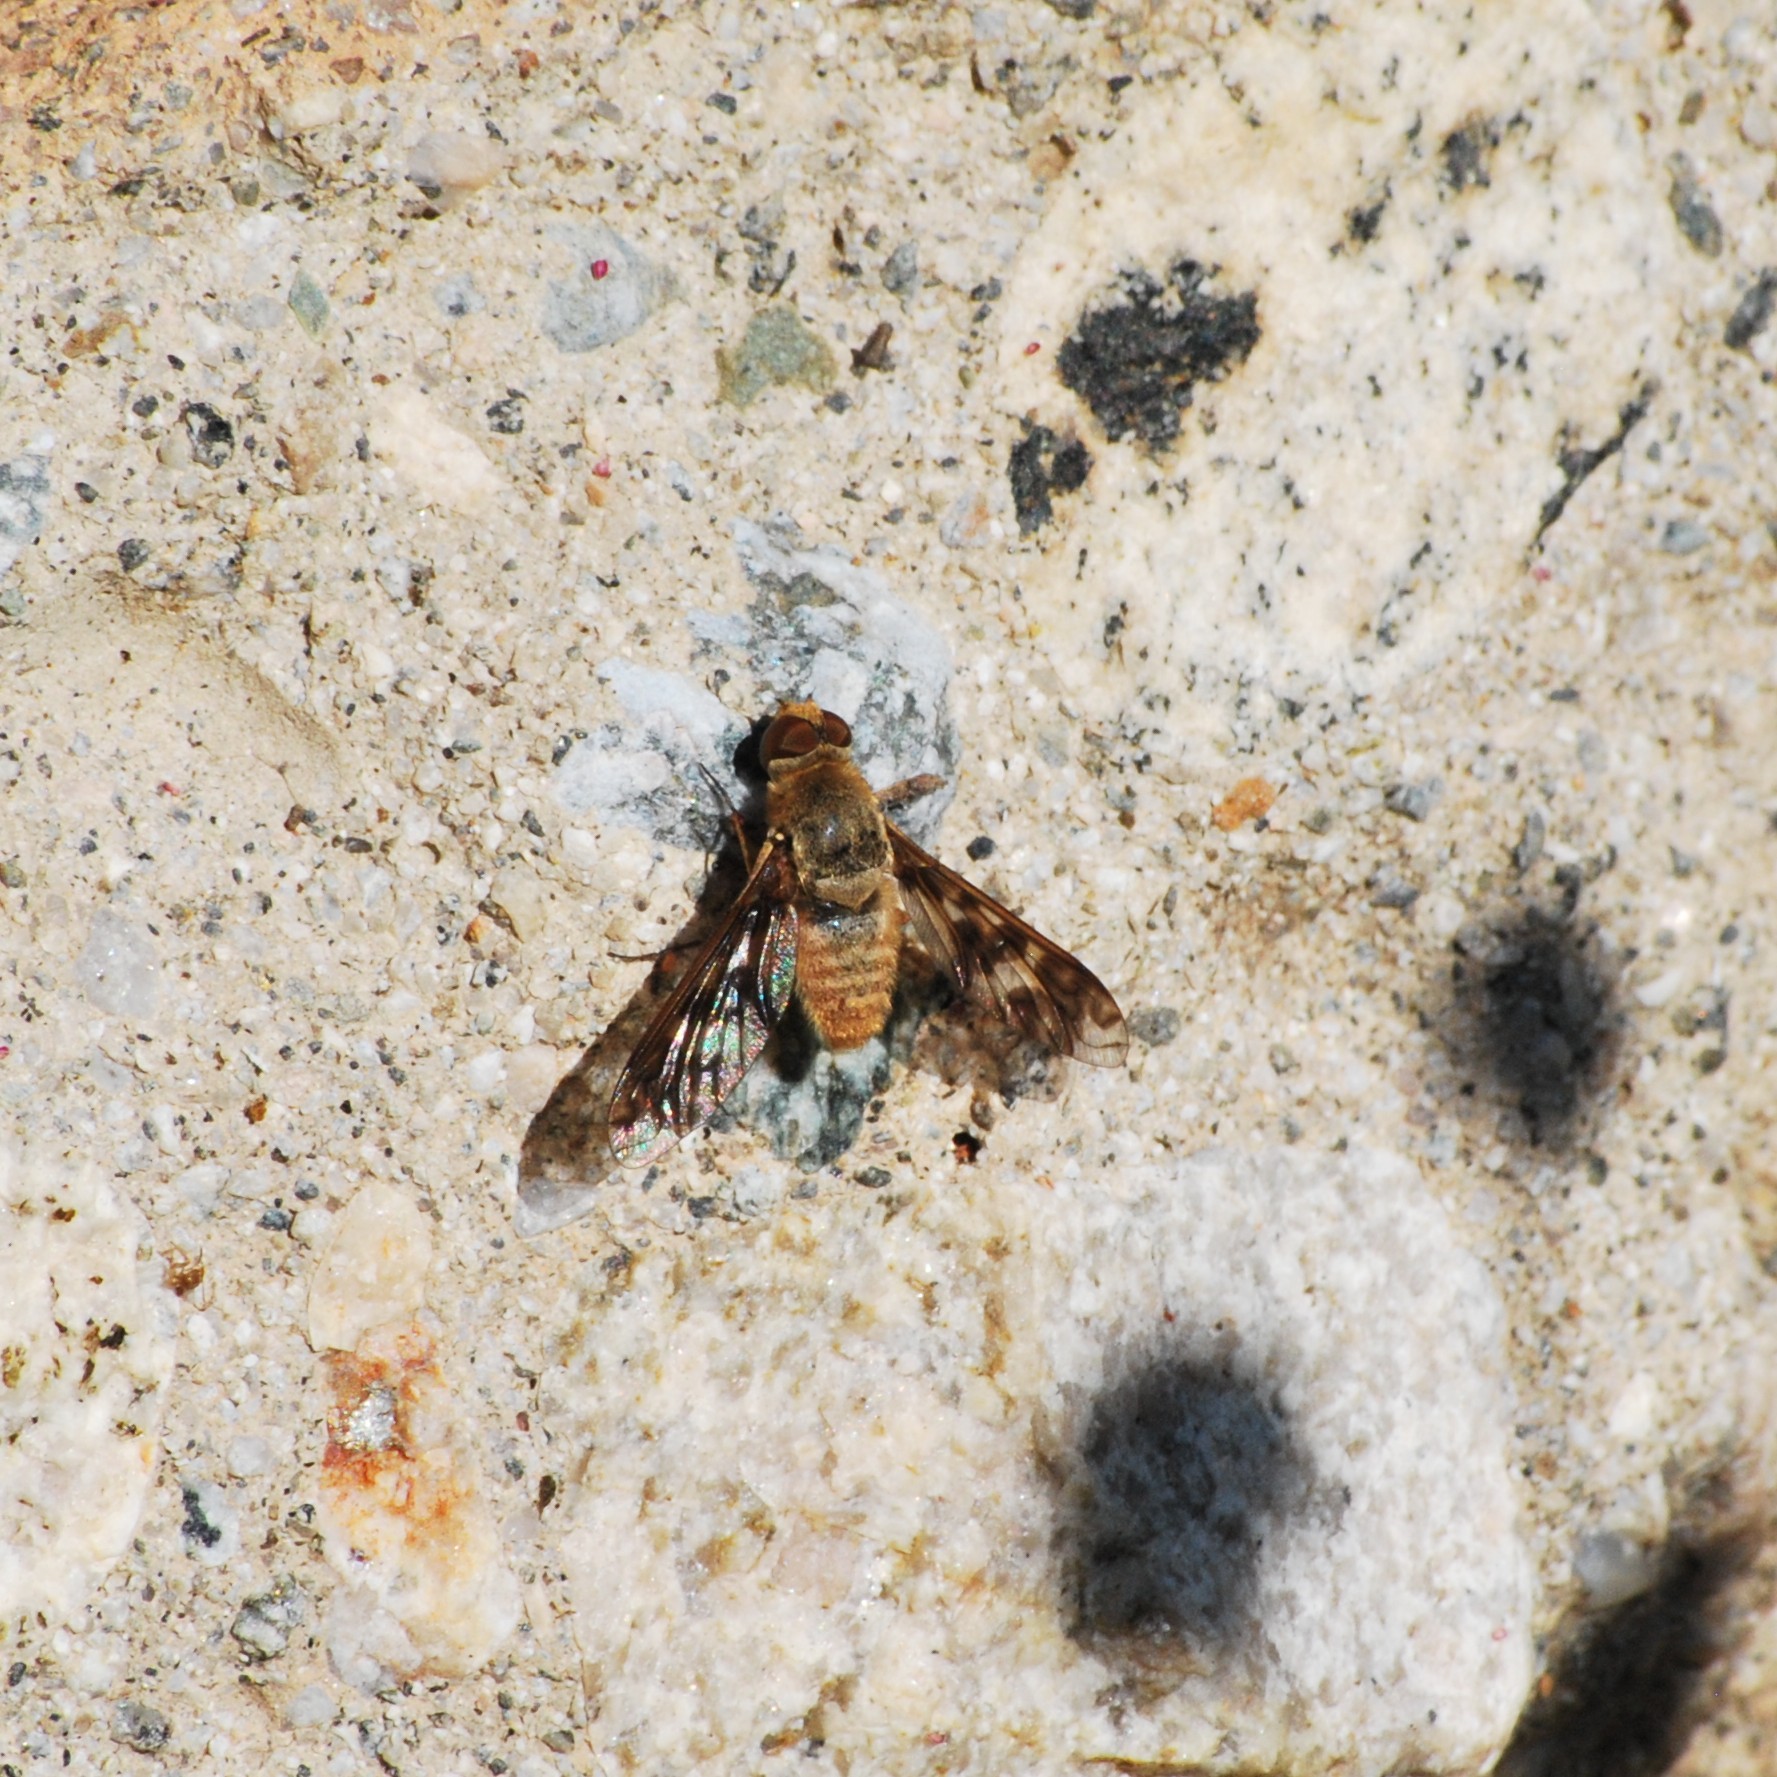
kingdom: Animalia
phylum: Arthropoda
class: Insecta
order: Diptera
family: Bombyliidae
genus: Dipalta
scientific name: Dipalta serpentina
